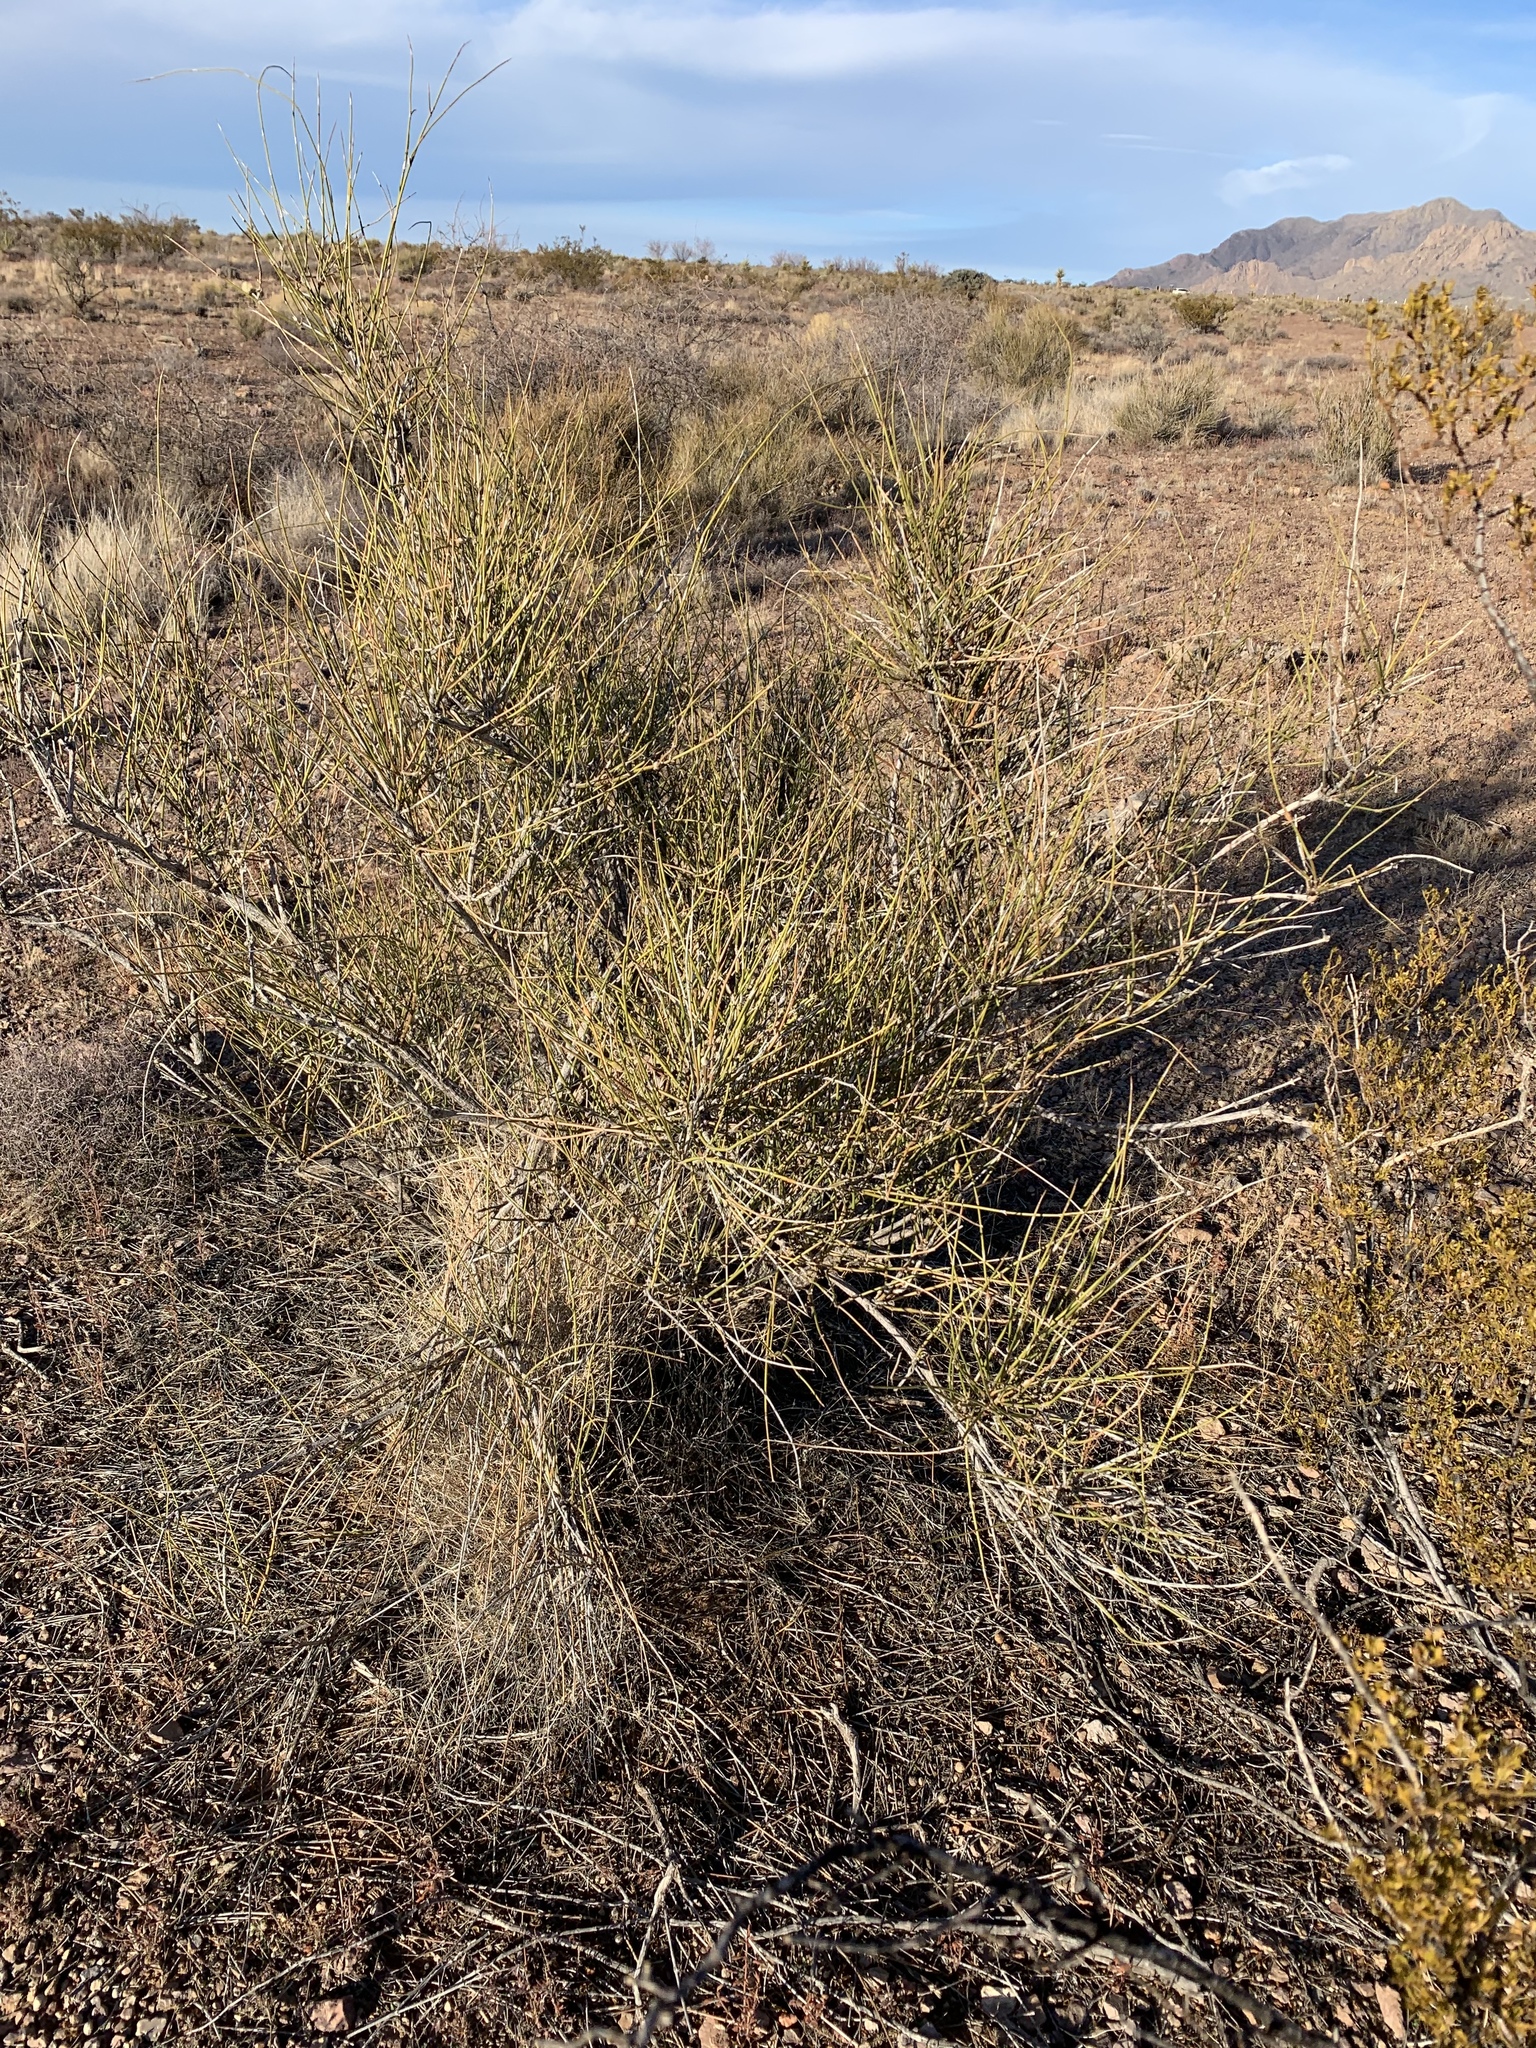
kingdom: Plantae
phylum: Tracheophyta
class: Gnetopsida
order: Ephedrales
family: Ephedraceae
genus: Ephedra
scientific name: Ephedra trifurca
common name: Mexican-tea
